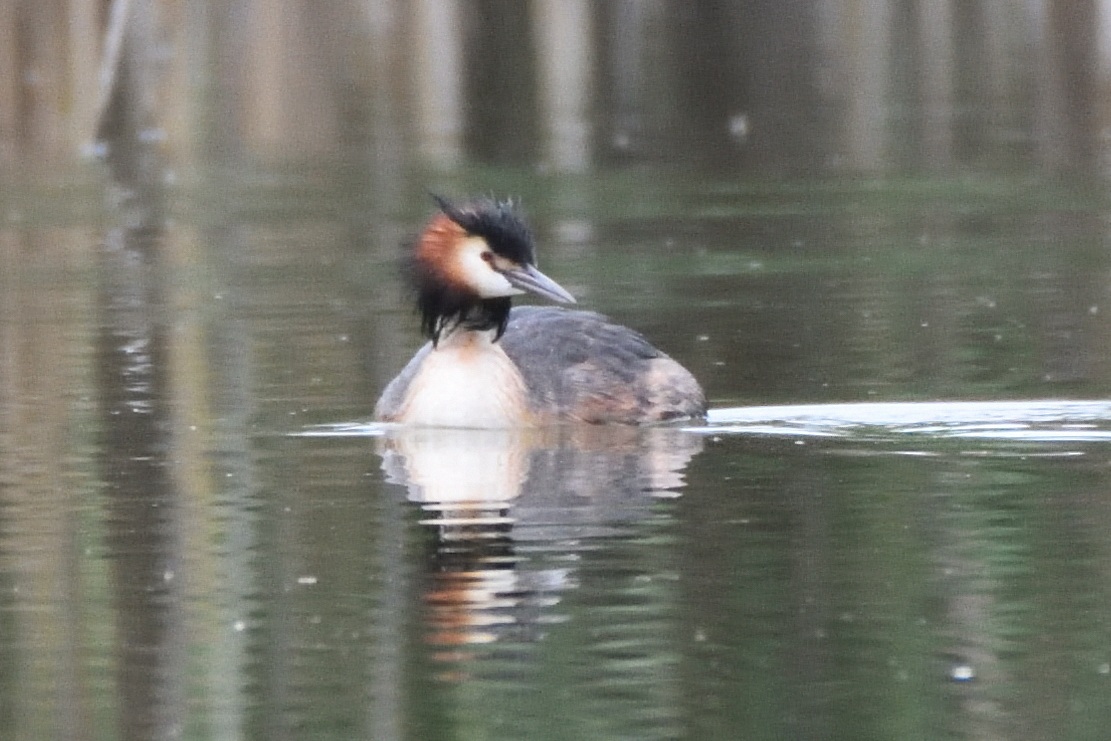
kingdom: Animalia
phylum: Chordata
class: Aves
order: Podicipediformes
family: Podicipedidae
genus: Podiceps
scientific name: Podiceps cristatus
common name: Great crested grebe
